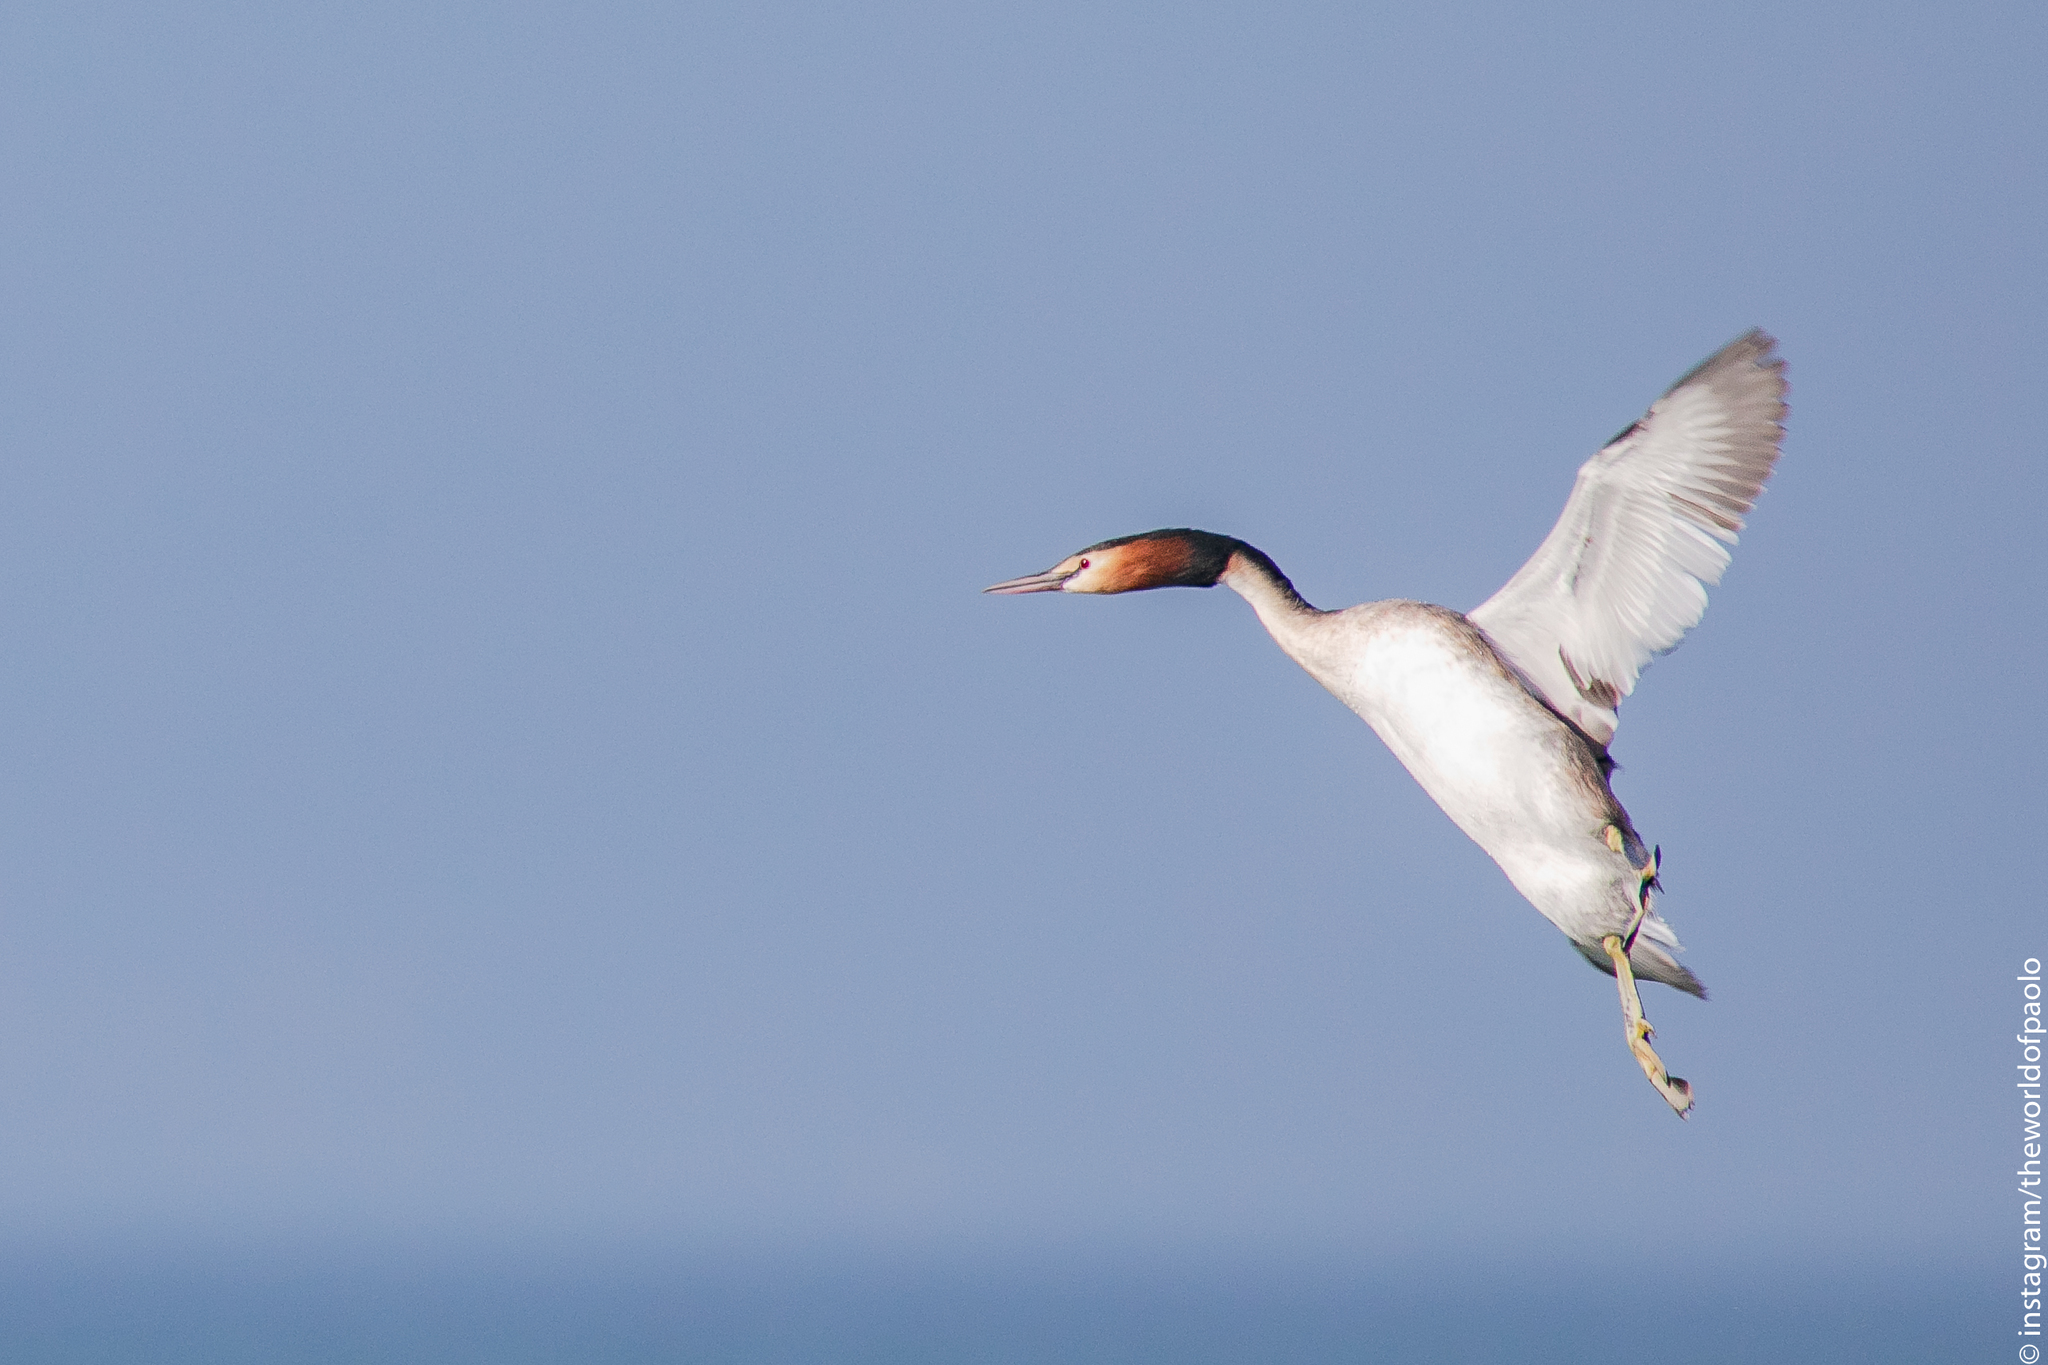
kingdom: Animalia
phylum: Chordata
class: Aves
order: Podicipediformes
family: Podicipedidae
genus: Podiceps
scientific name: Podiceps cristatus
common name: Great crested grebe
